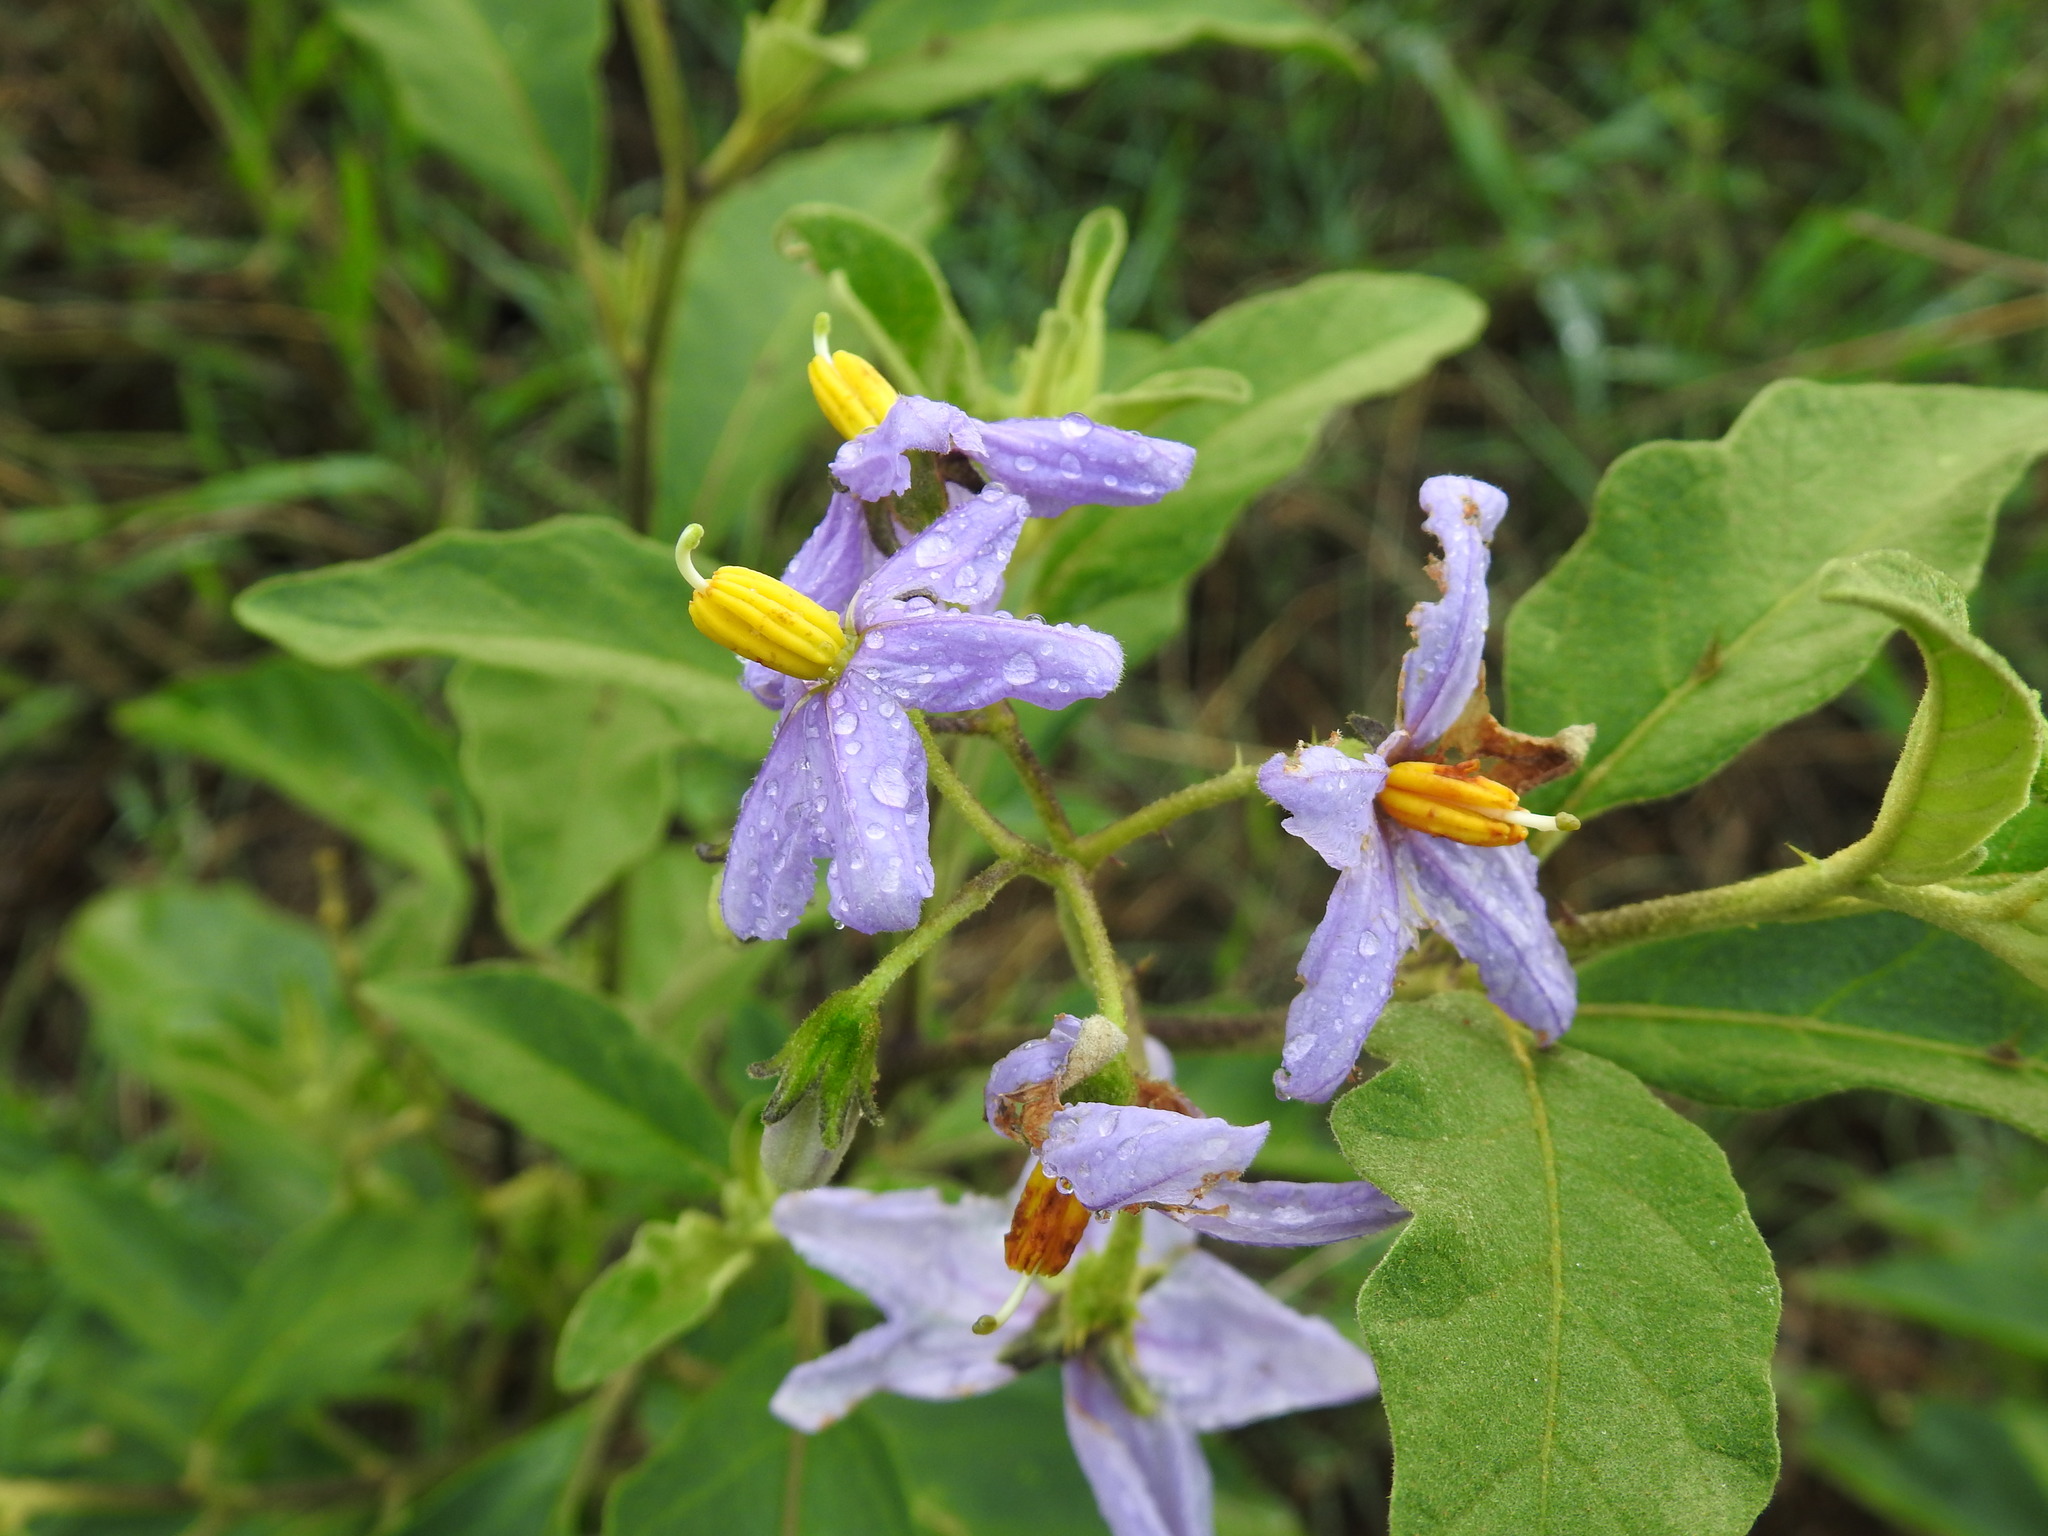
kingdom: Plantae
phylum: Tracheophyta
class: Magnoliopsida
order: Solanales
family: Solanaceae
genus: Solanum
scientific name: Solanum campylacanthum
